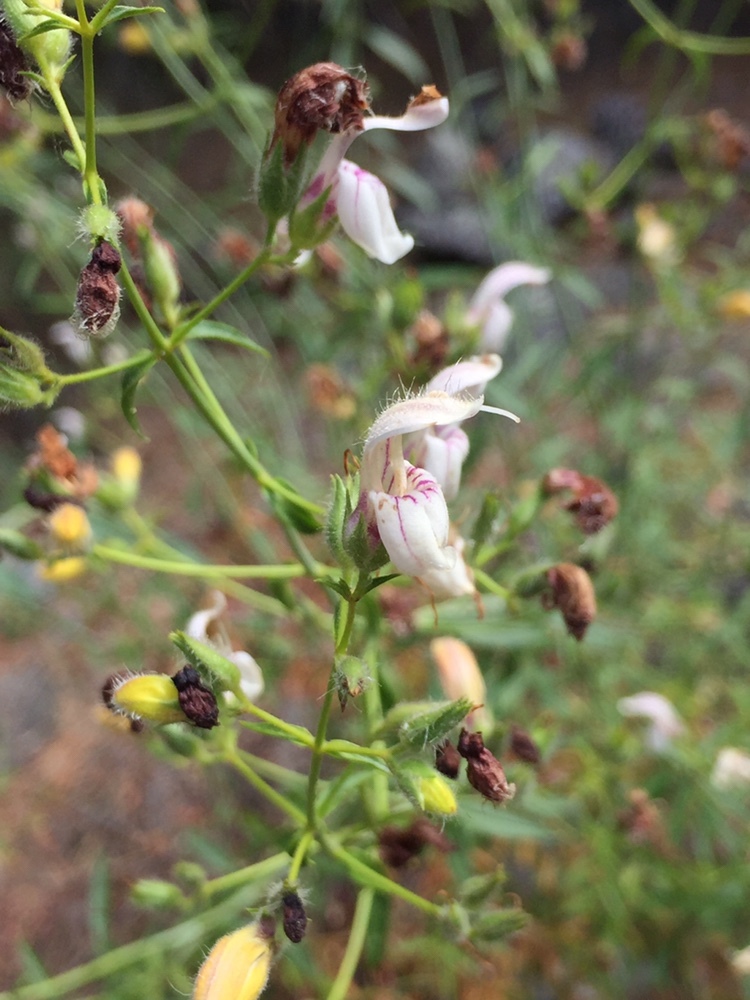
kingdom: Plantae
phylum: Tracheophyta
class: Magnoliopsida
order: Lamiales
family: Plantaginaceae
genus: Keckiella
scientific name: Keckiella breviflora
